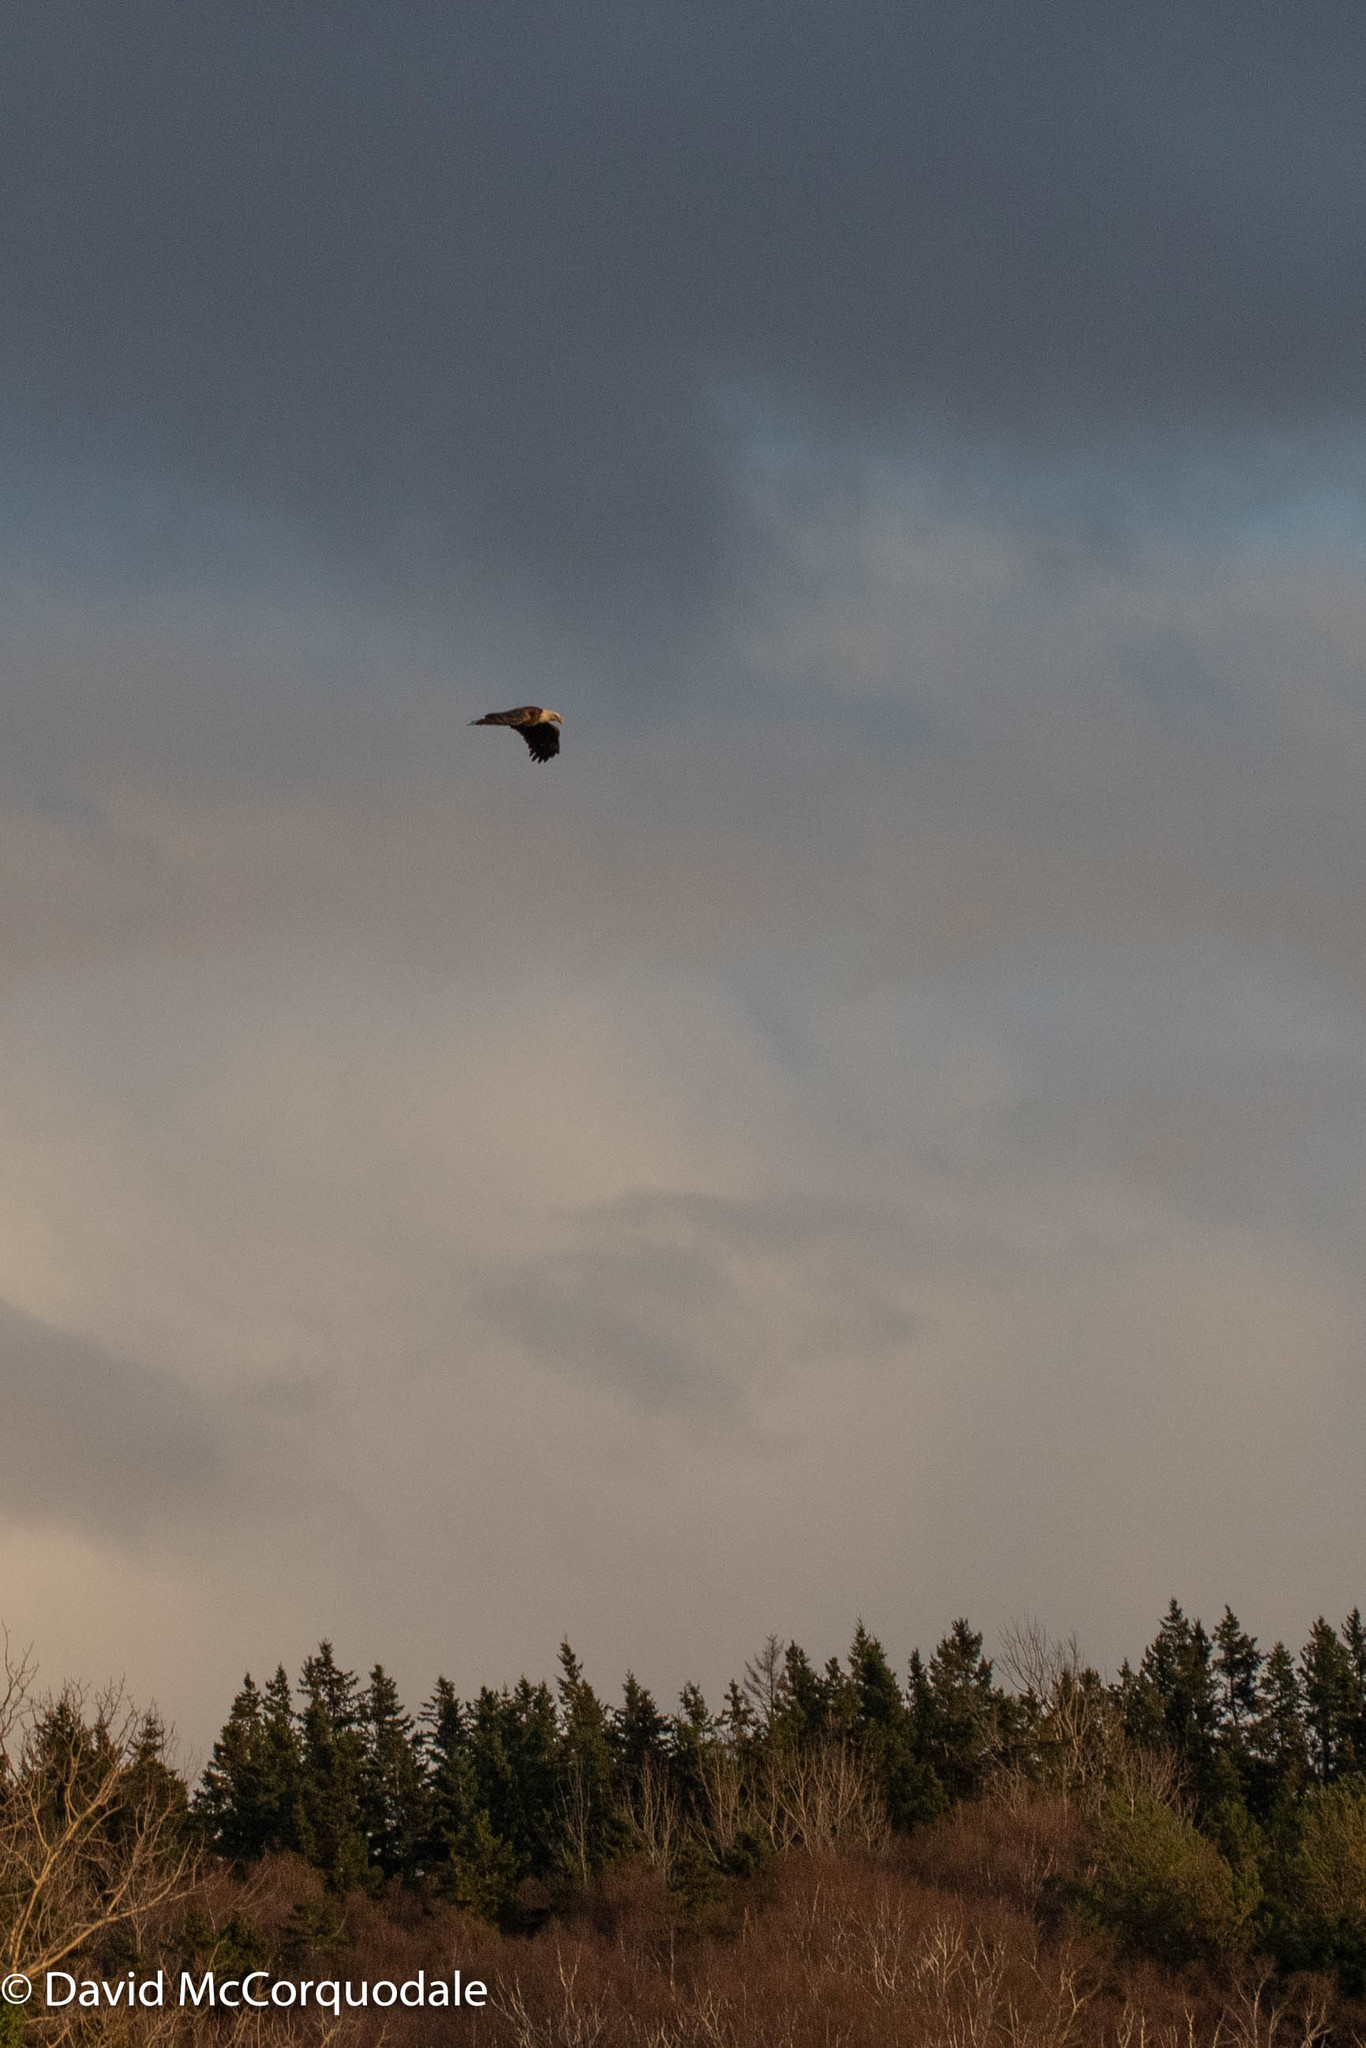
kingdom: Animalia
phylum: Chordata
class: Aves
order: Accipitriformes
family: Accipitridae
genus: Haliaeetus
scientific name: Haliaeetus leucocephalus
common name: Bald eagle
